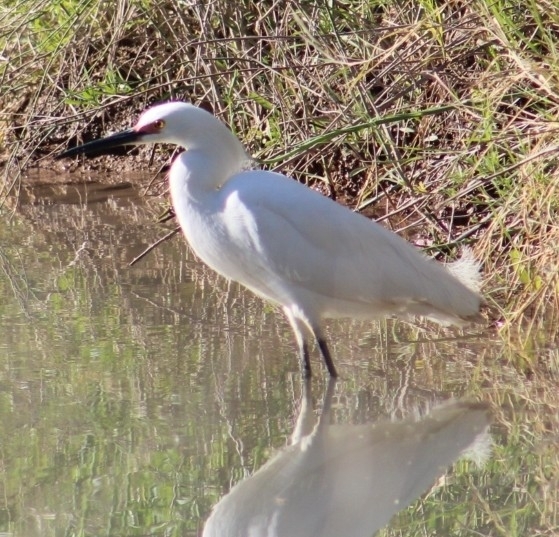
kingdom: Animalia
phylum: Chordata
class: Aves
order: Pelecaniformes
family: Ardeidae
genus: Egretta
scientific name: Egretta thula
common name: Snowy egret
